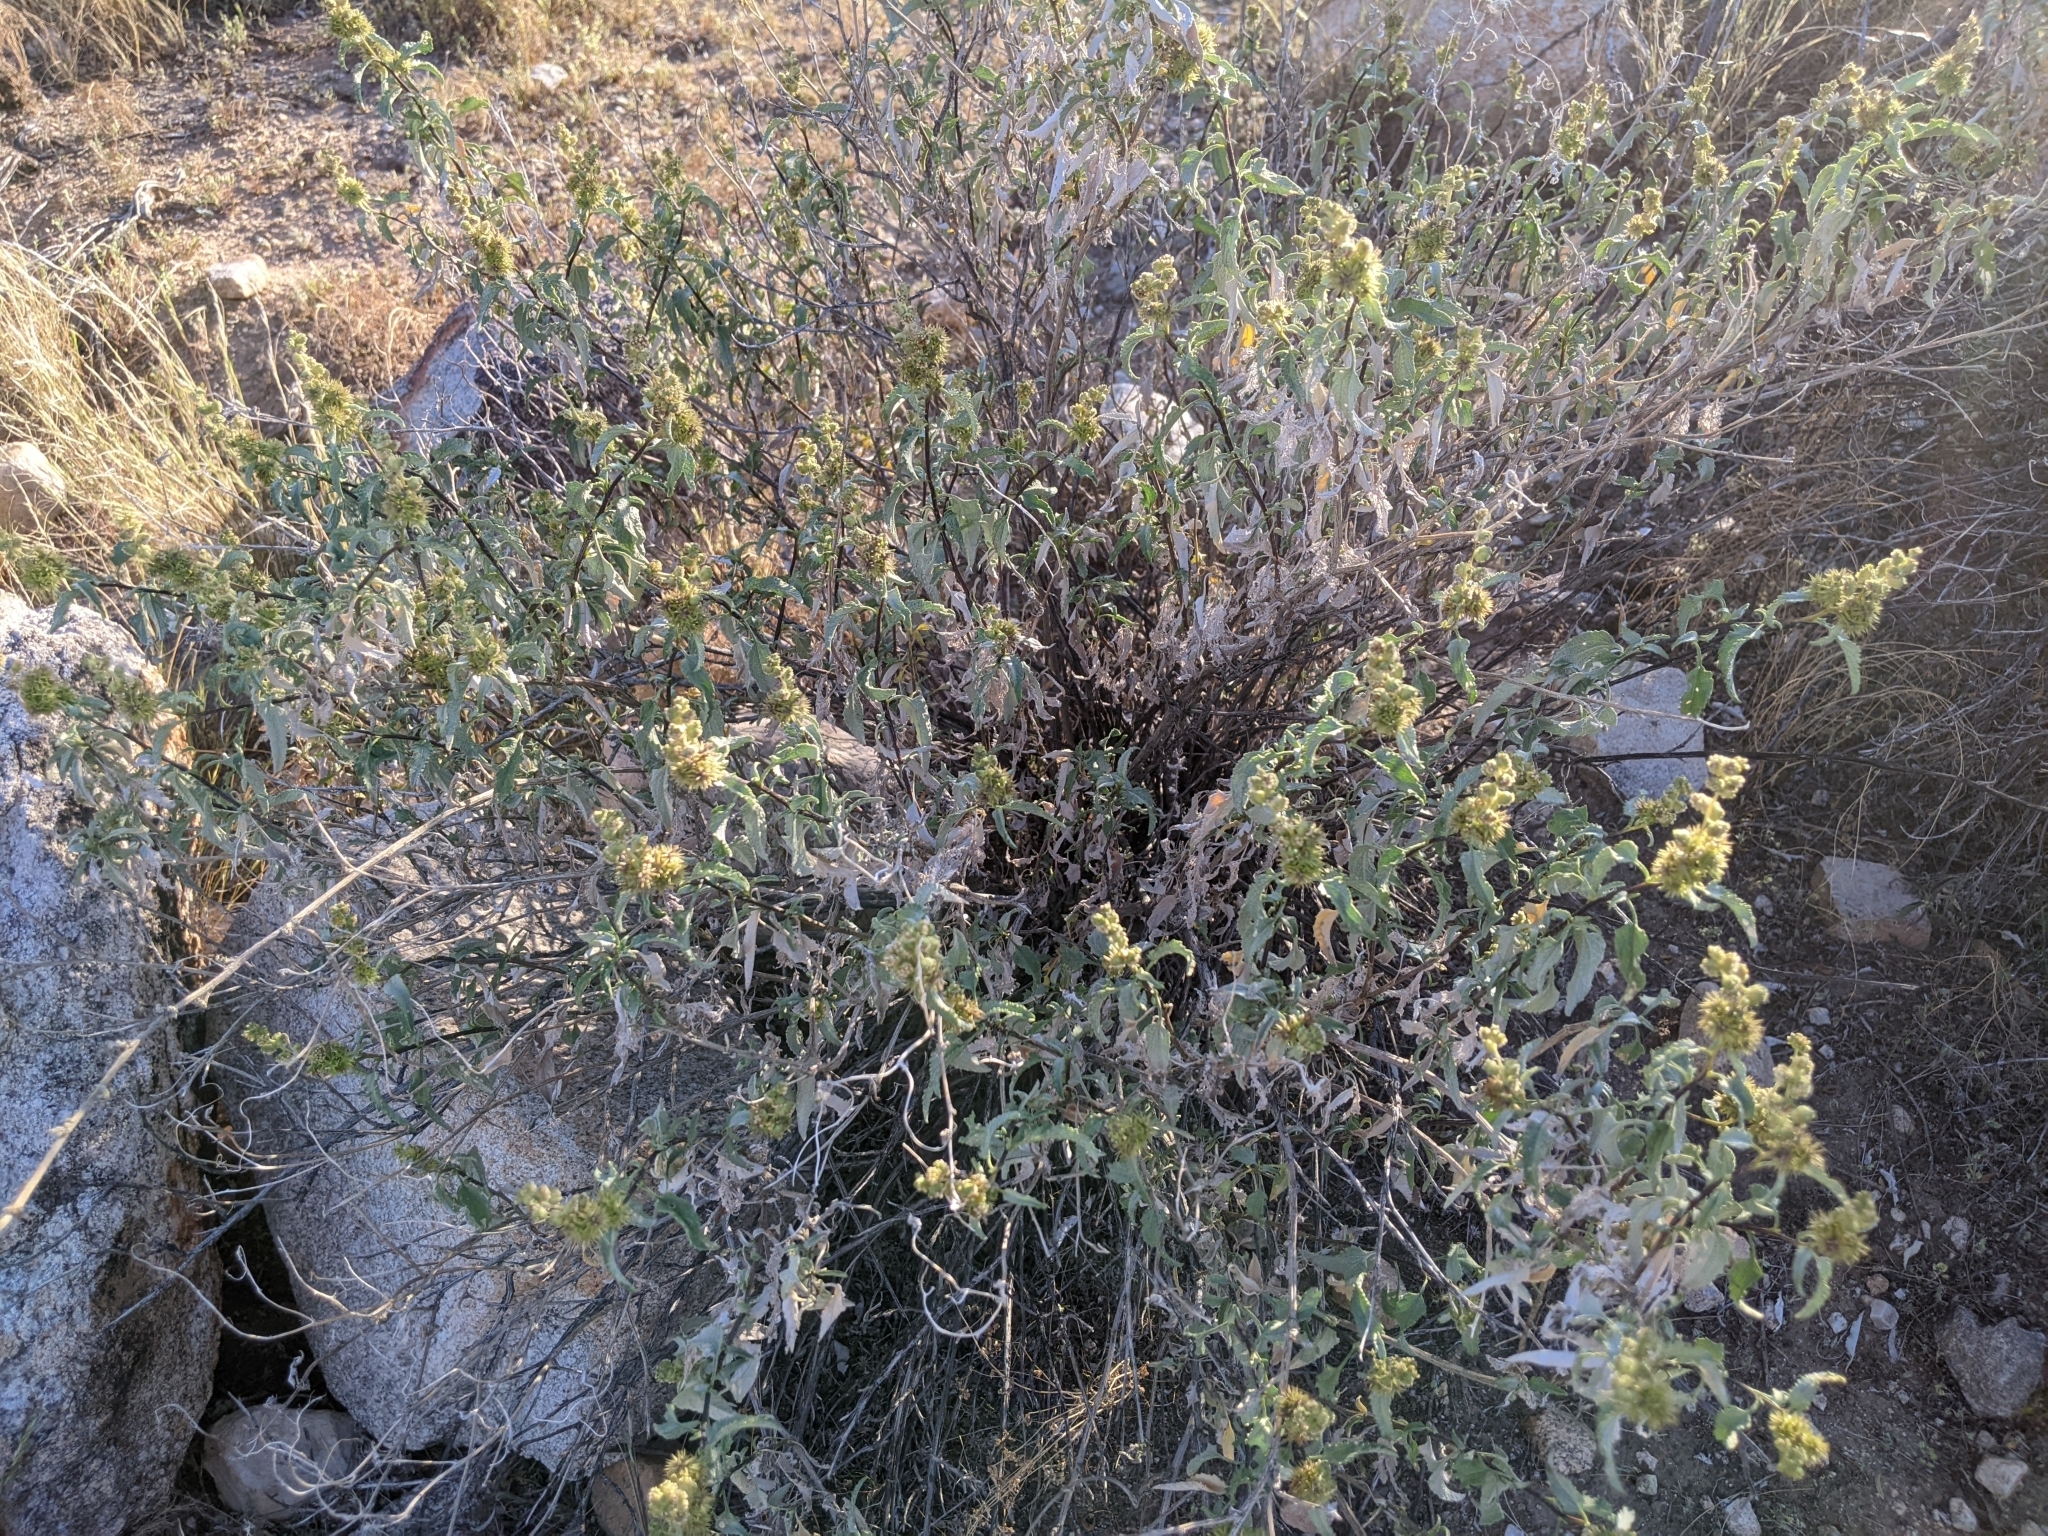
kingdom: Plantae
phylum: Tracheophyta
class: Magnoliopsida
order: Asterales
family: Asteraceae
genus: Ambrosia
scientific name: Ambrosia deltoidea
